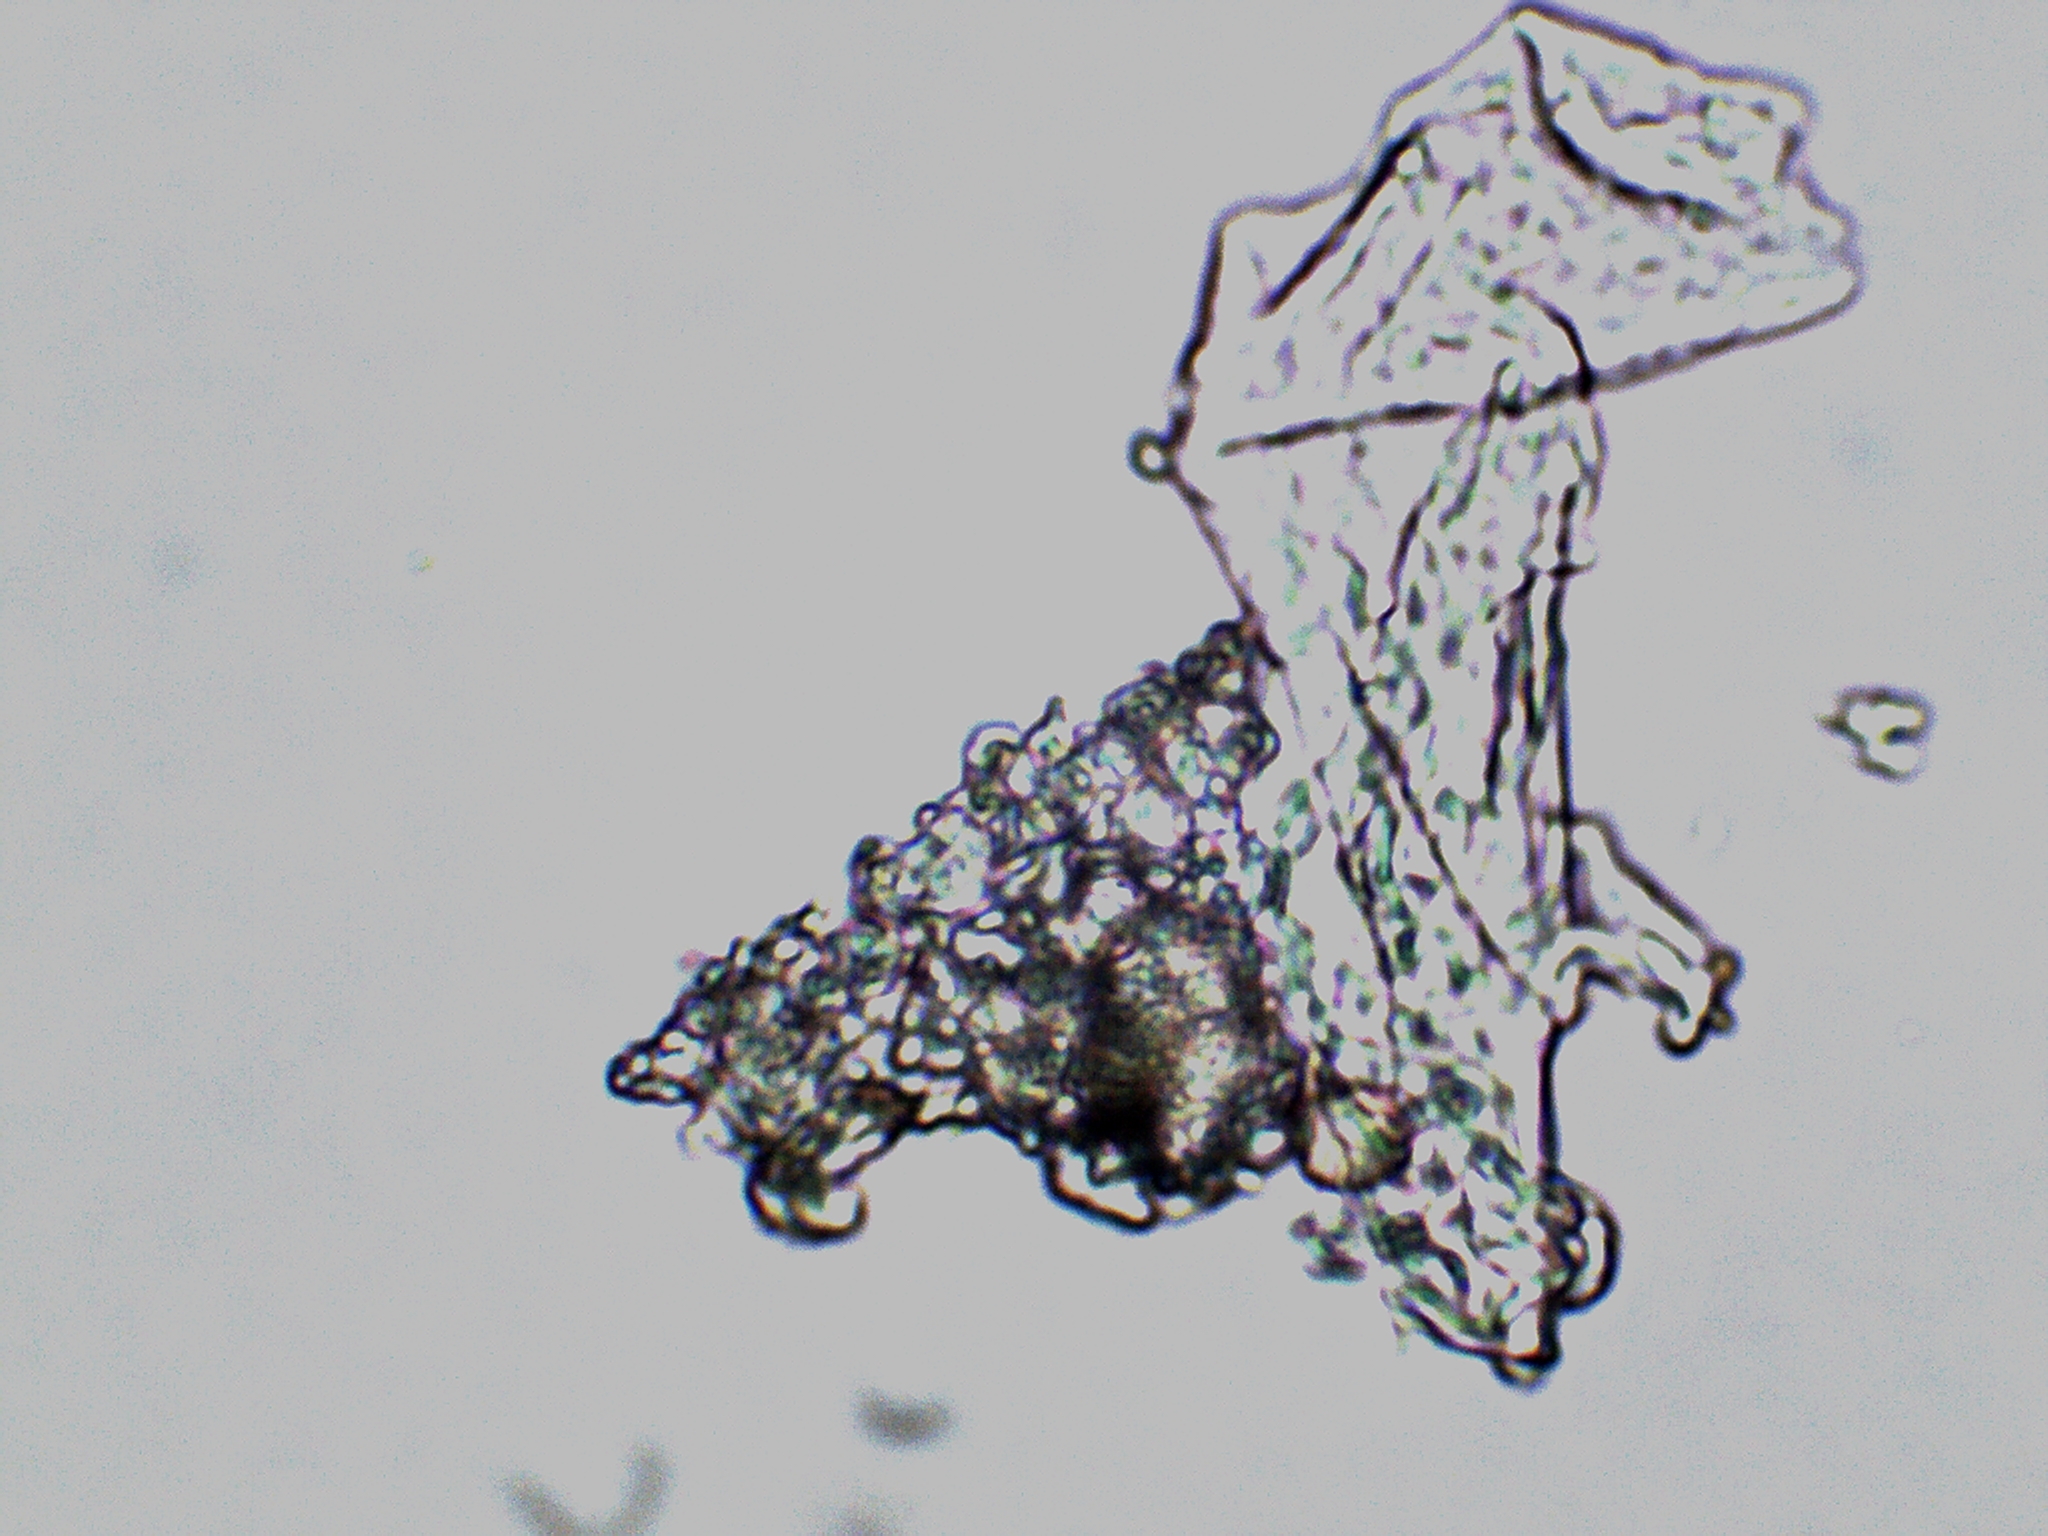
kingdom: Protozoa
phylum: Mycetozoa
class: Myxomycetes
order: Cribrariales
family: Tubiferaceae
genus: Tubifera
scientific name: Tubifera ferruginosa
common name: Red raspberry slime mold
